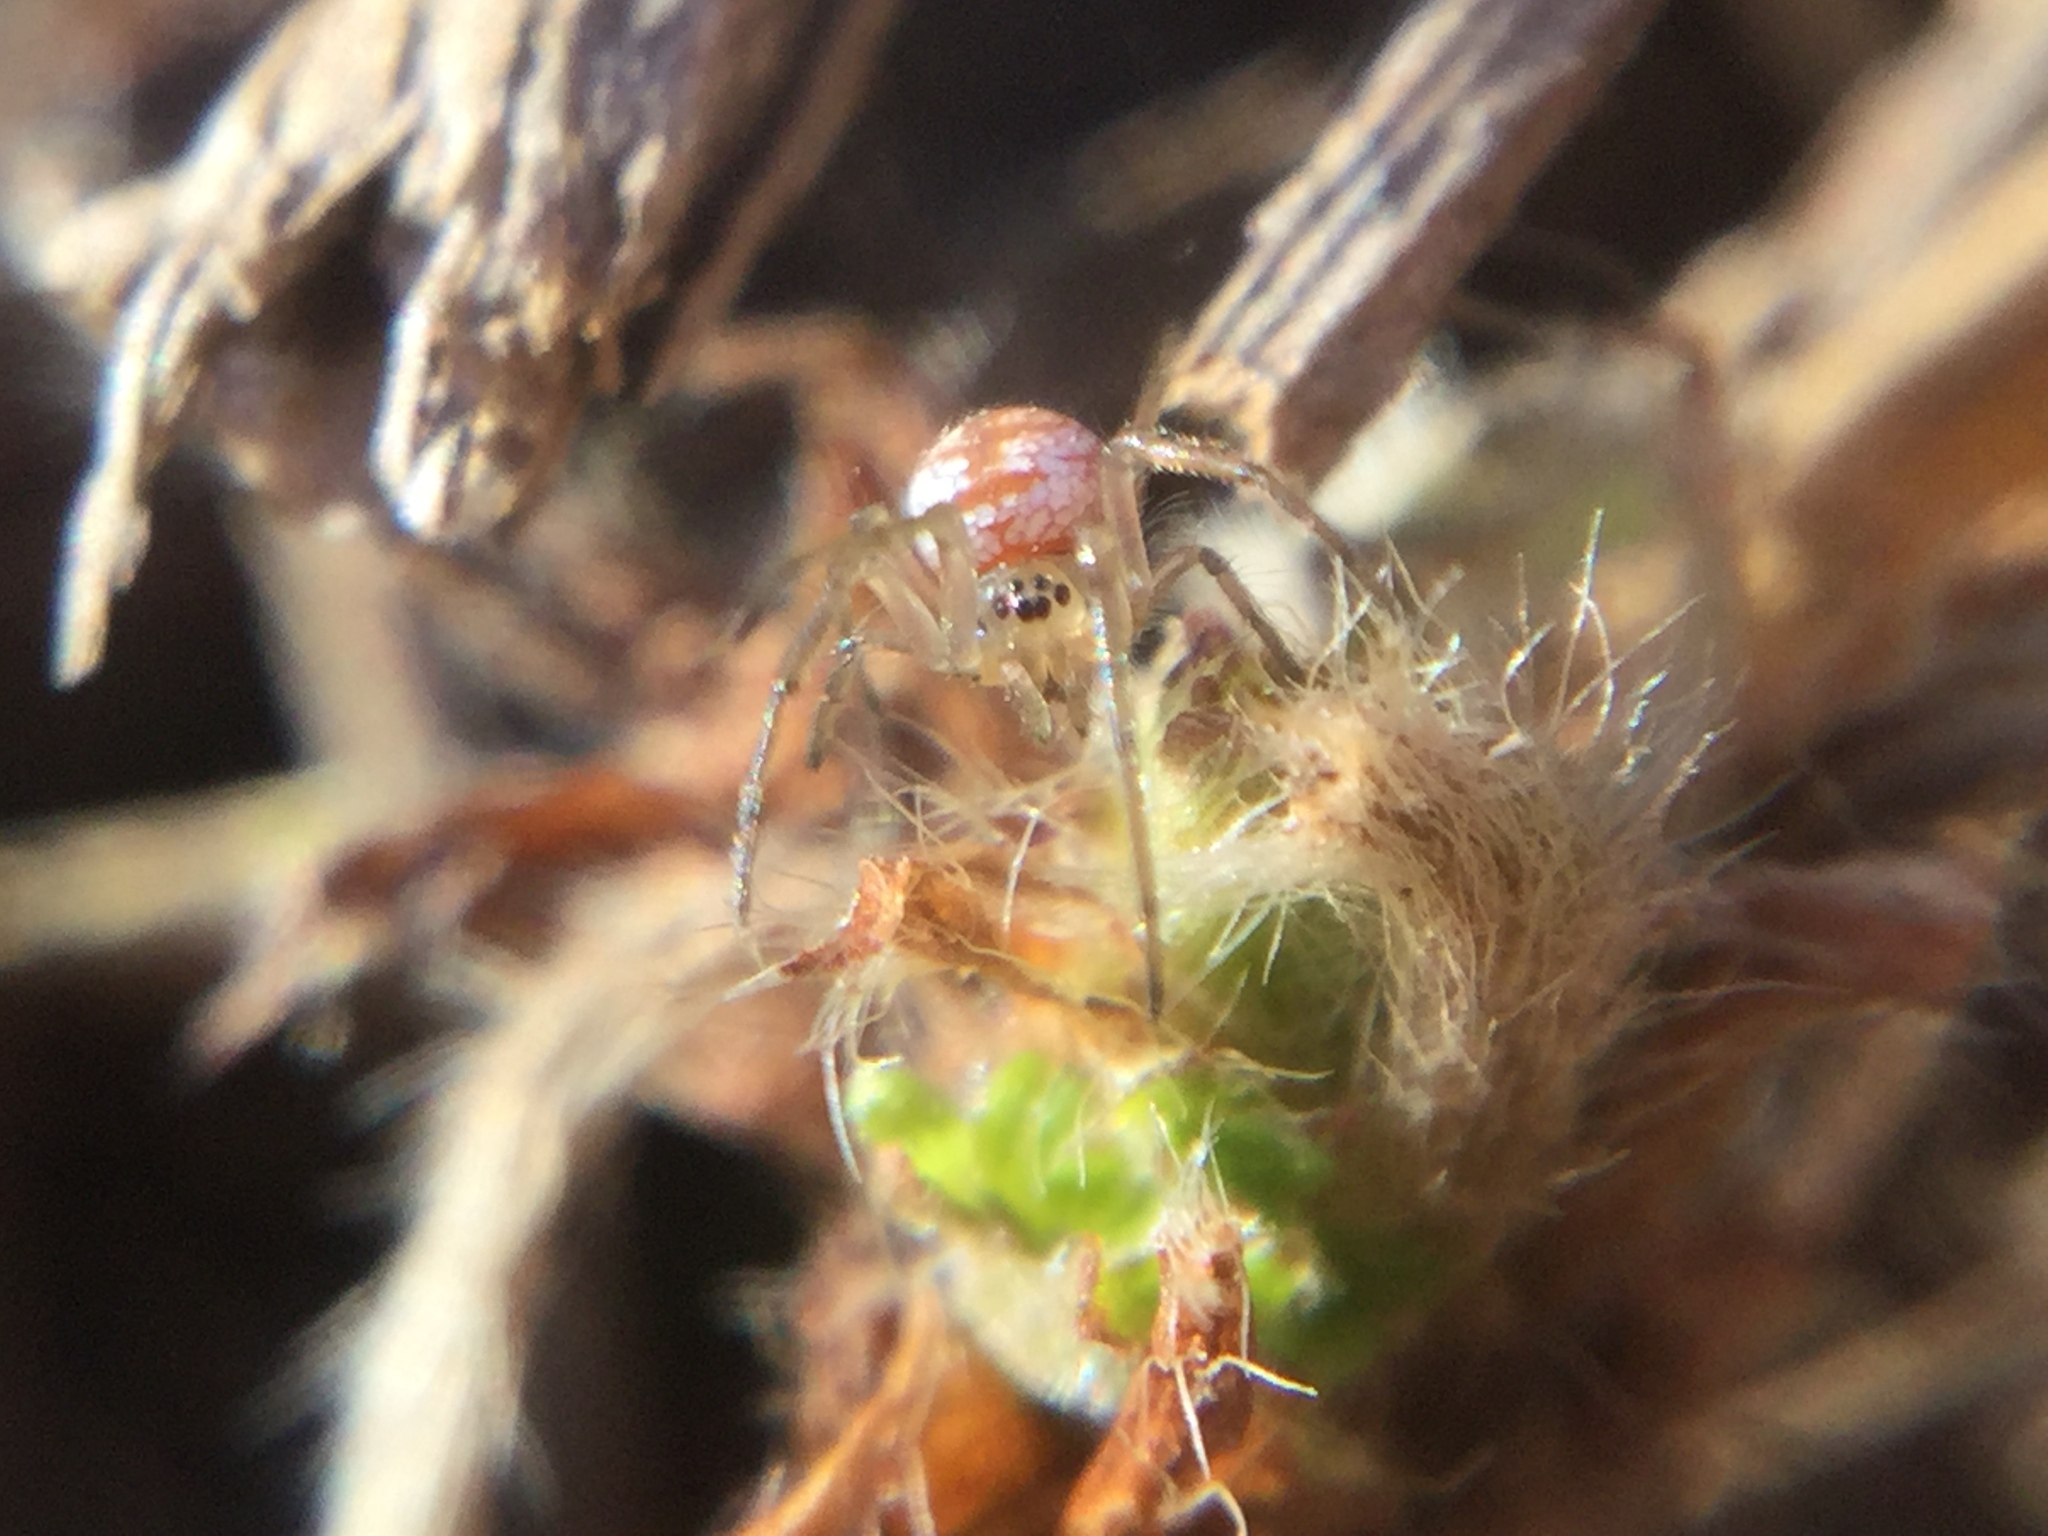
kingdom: Animalia
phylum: Arthropoda
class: Arachnida
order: Araneae
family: Tetragnathidae
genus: Leucauge
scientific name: Leucauge venusta
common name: Longjawed orb weavers
